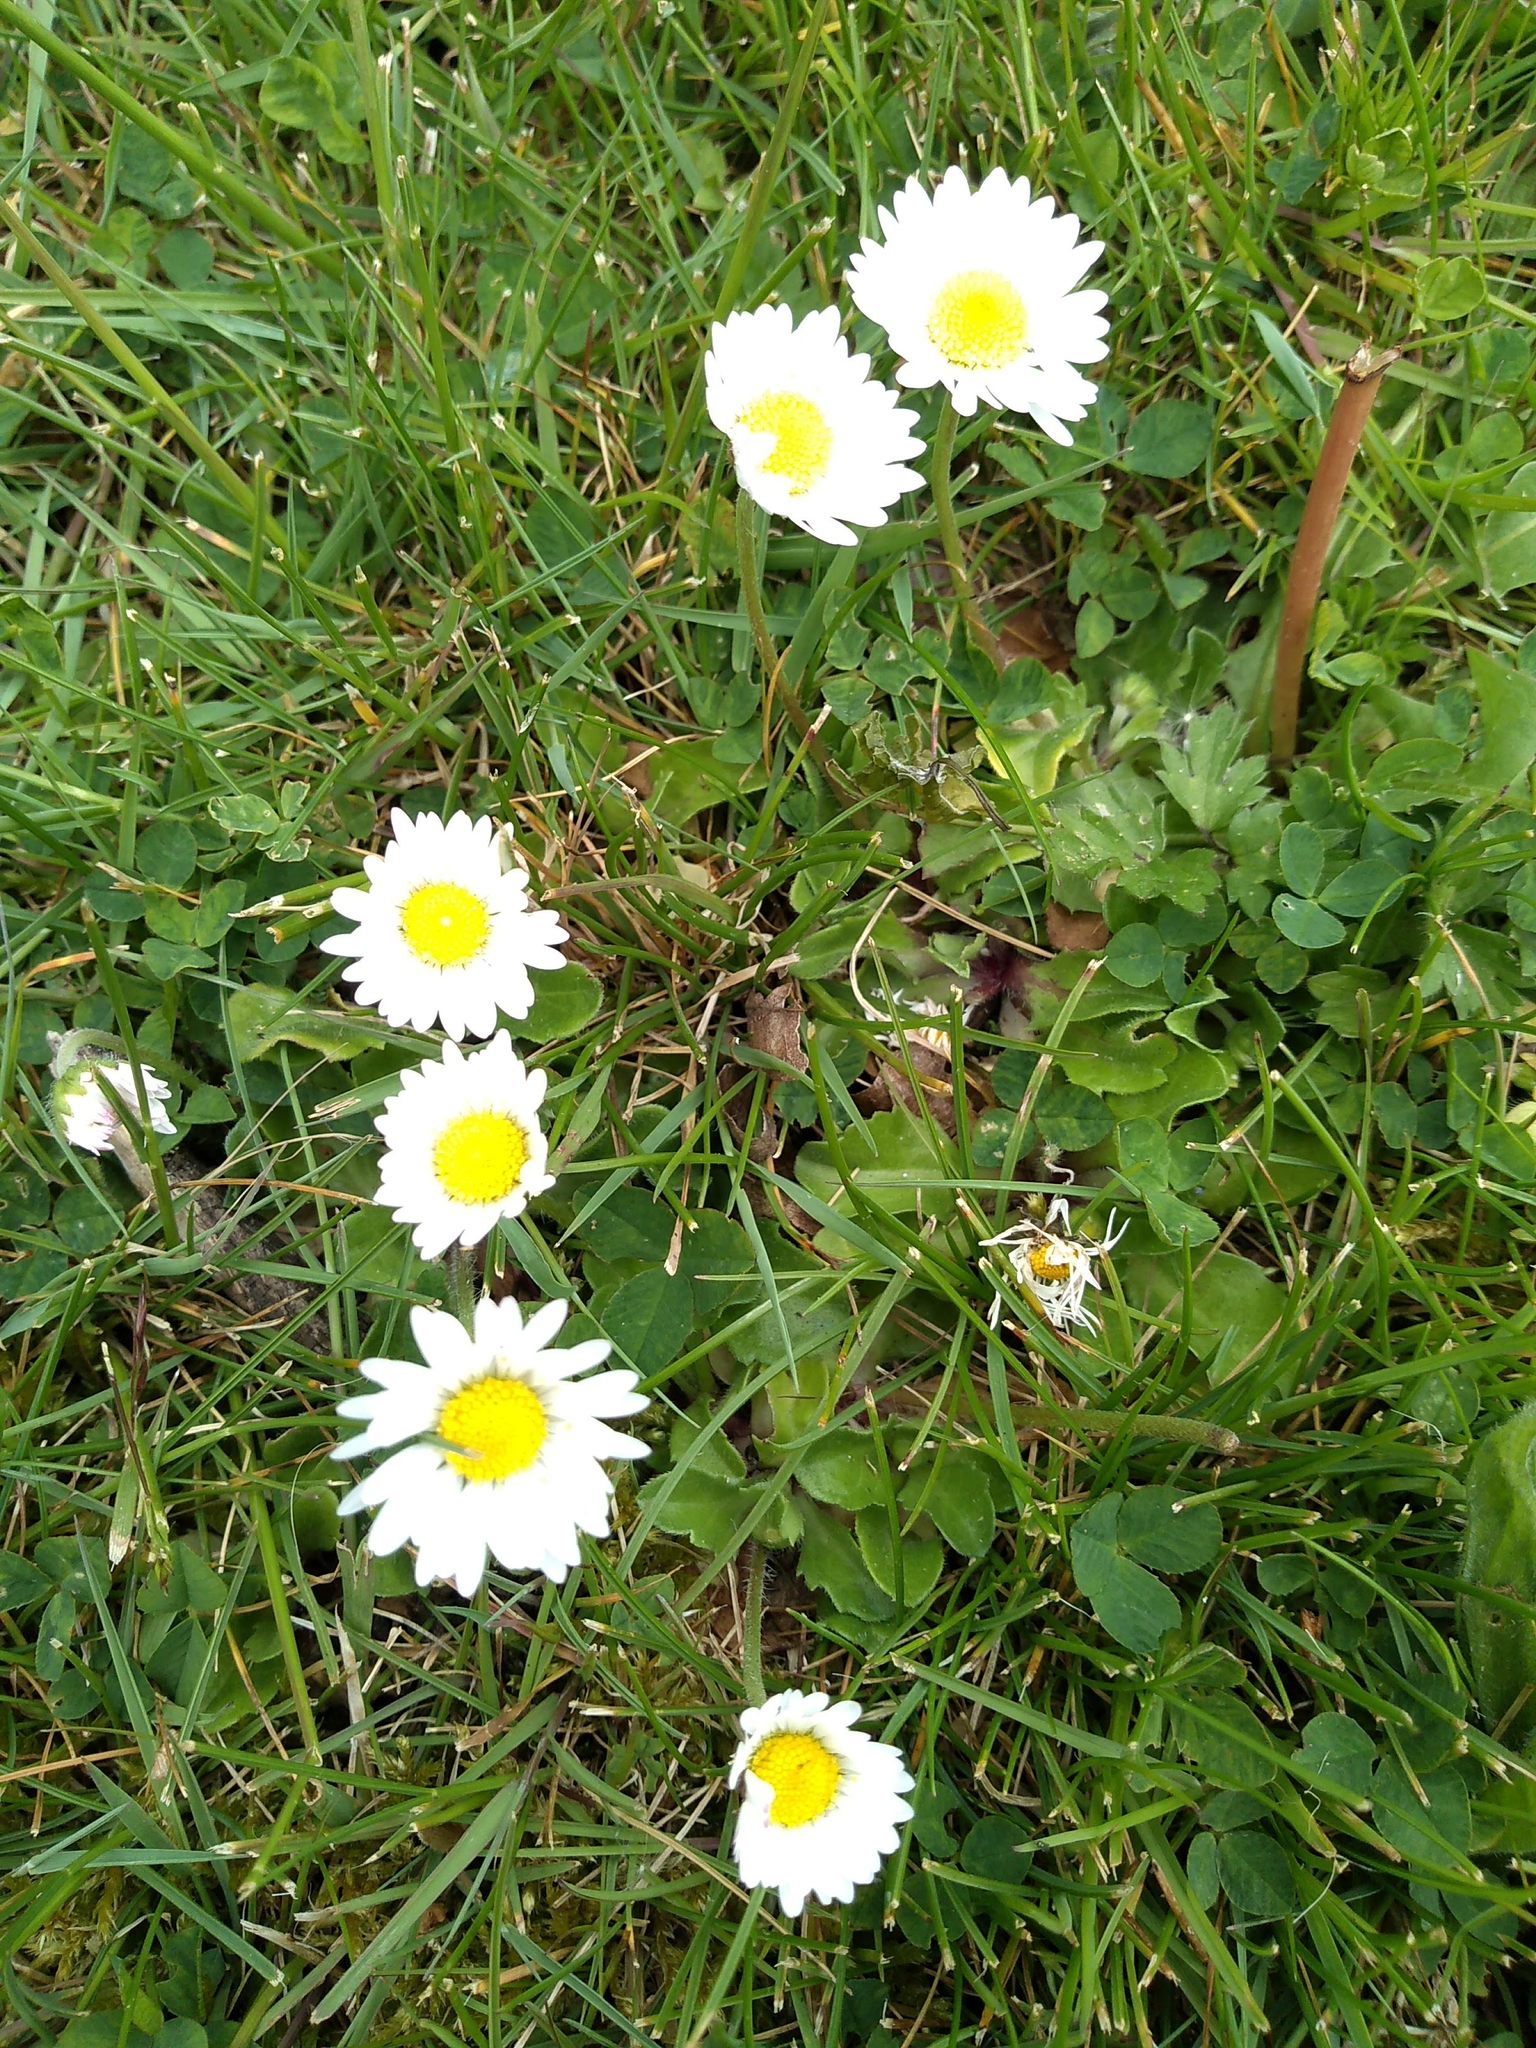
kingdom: Plantae
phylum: Tracheophyta
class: Magnoliopsida
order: Asterales
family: Asteraceae
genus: Bellis
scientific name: Bellis perennis
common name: Lawndaisy
